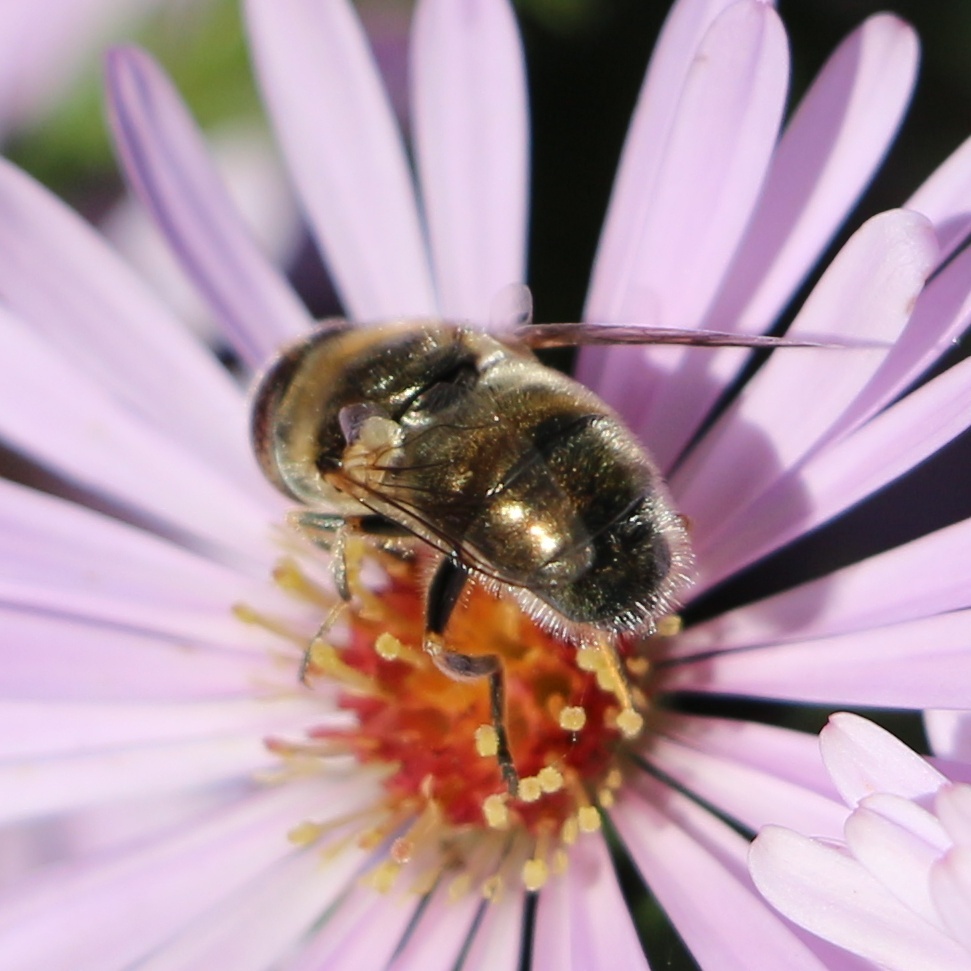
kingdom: Animalia
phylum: Arthropoda
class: Insecta
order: Diptera
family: Syrphidae
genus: Eristalinus
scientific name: Eristalinus aeneus
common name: Syrphid fly
